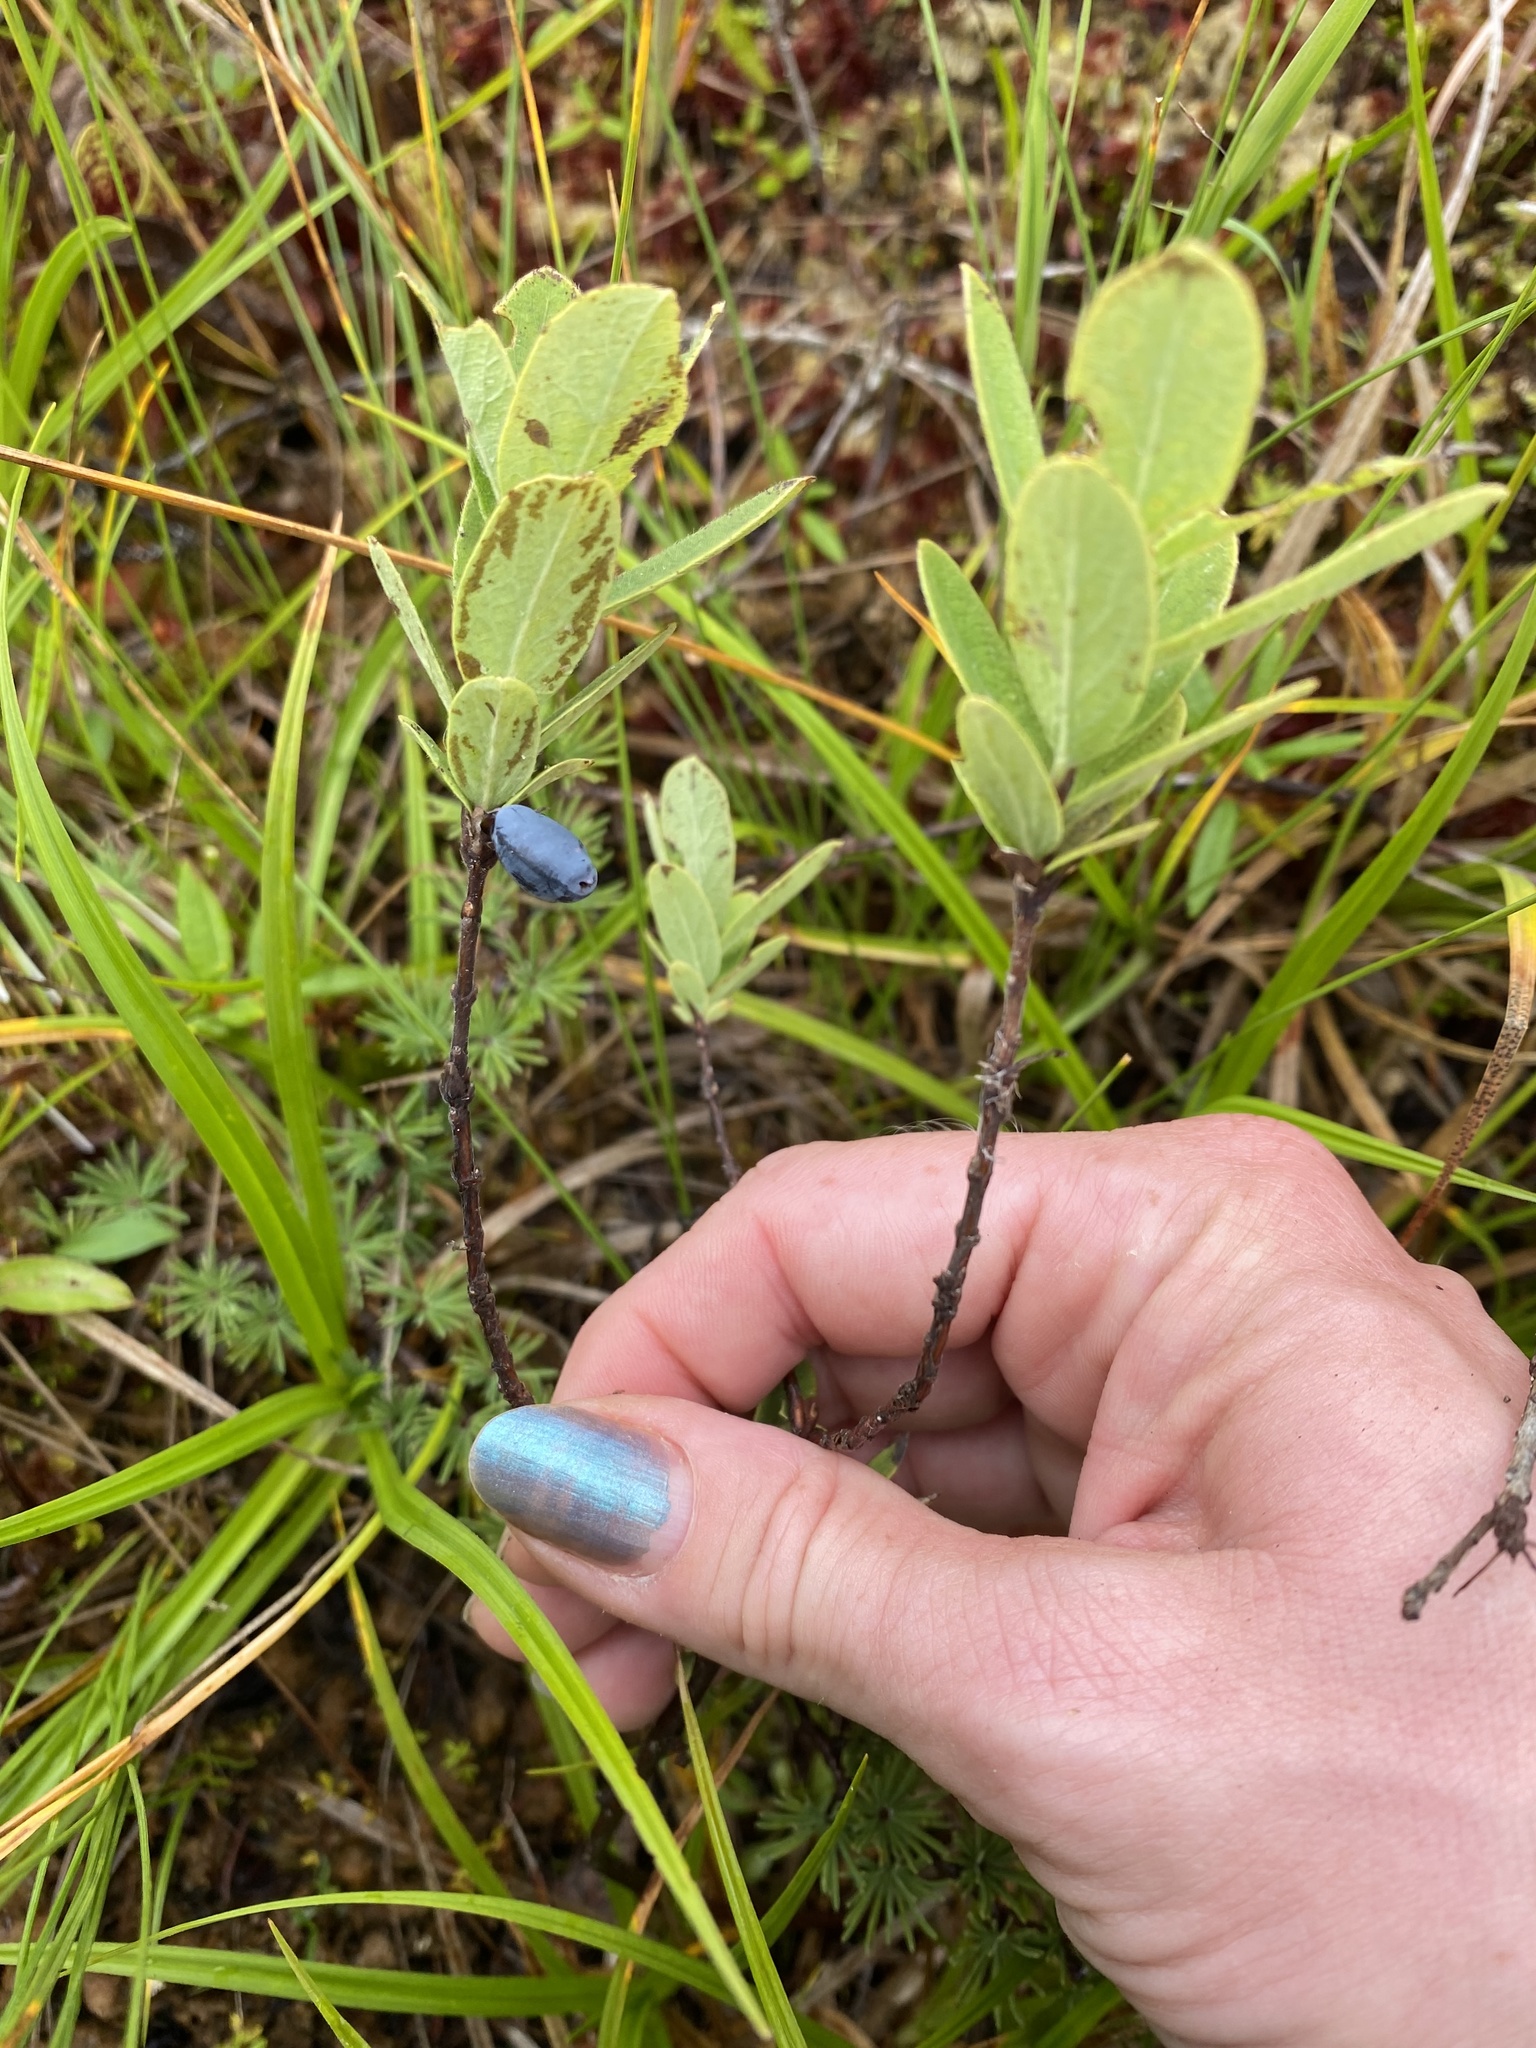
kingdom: Plantae
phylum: Tracheophyta
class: Magnoliopsida
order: Dipsacales
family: Caprifoliaceae
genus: Lonicera
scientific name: Lonicera villosa
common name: Mountain fly-honeysuckle
